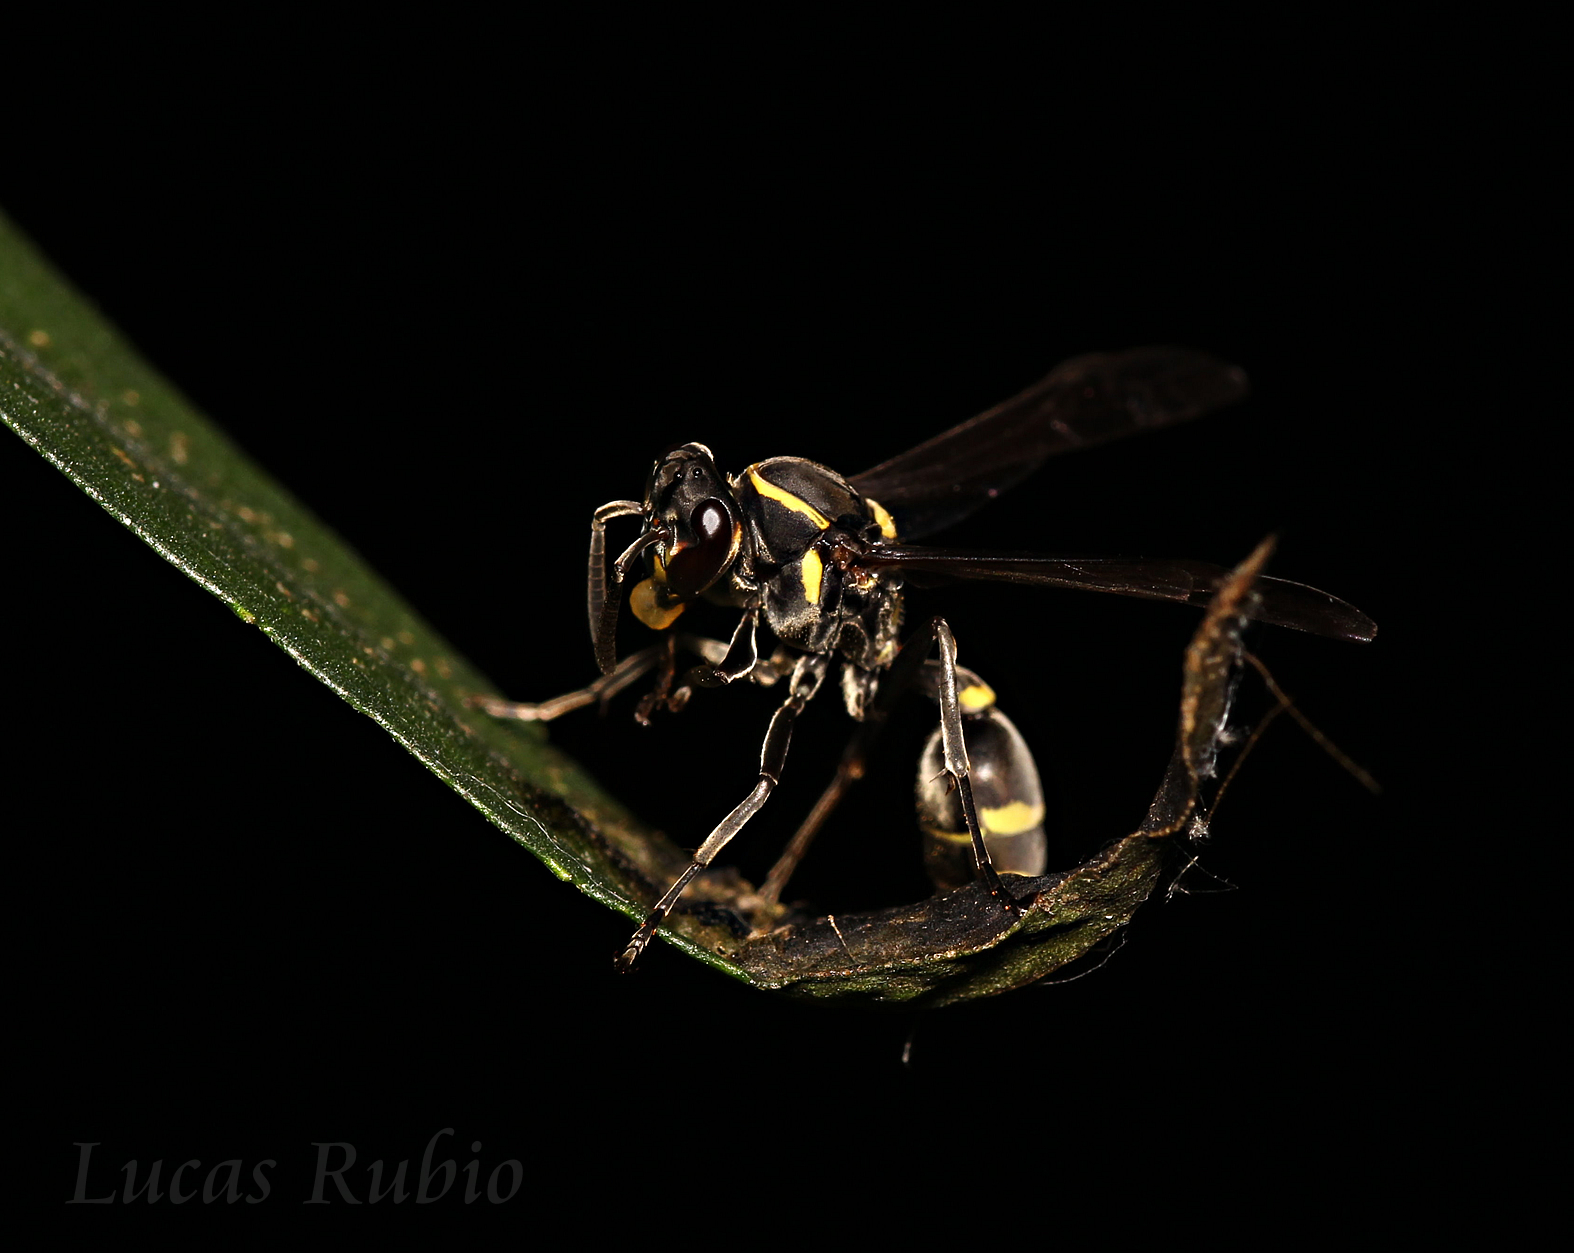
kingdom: Animalia
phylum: Arthropoda
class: Insecta
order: Hymenoptera
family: Eumenidae
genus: Polybia
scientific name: Polybia occidentalis
